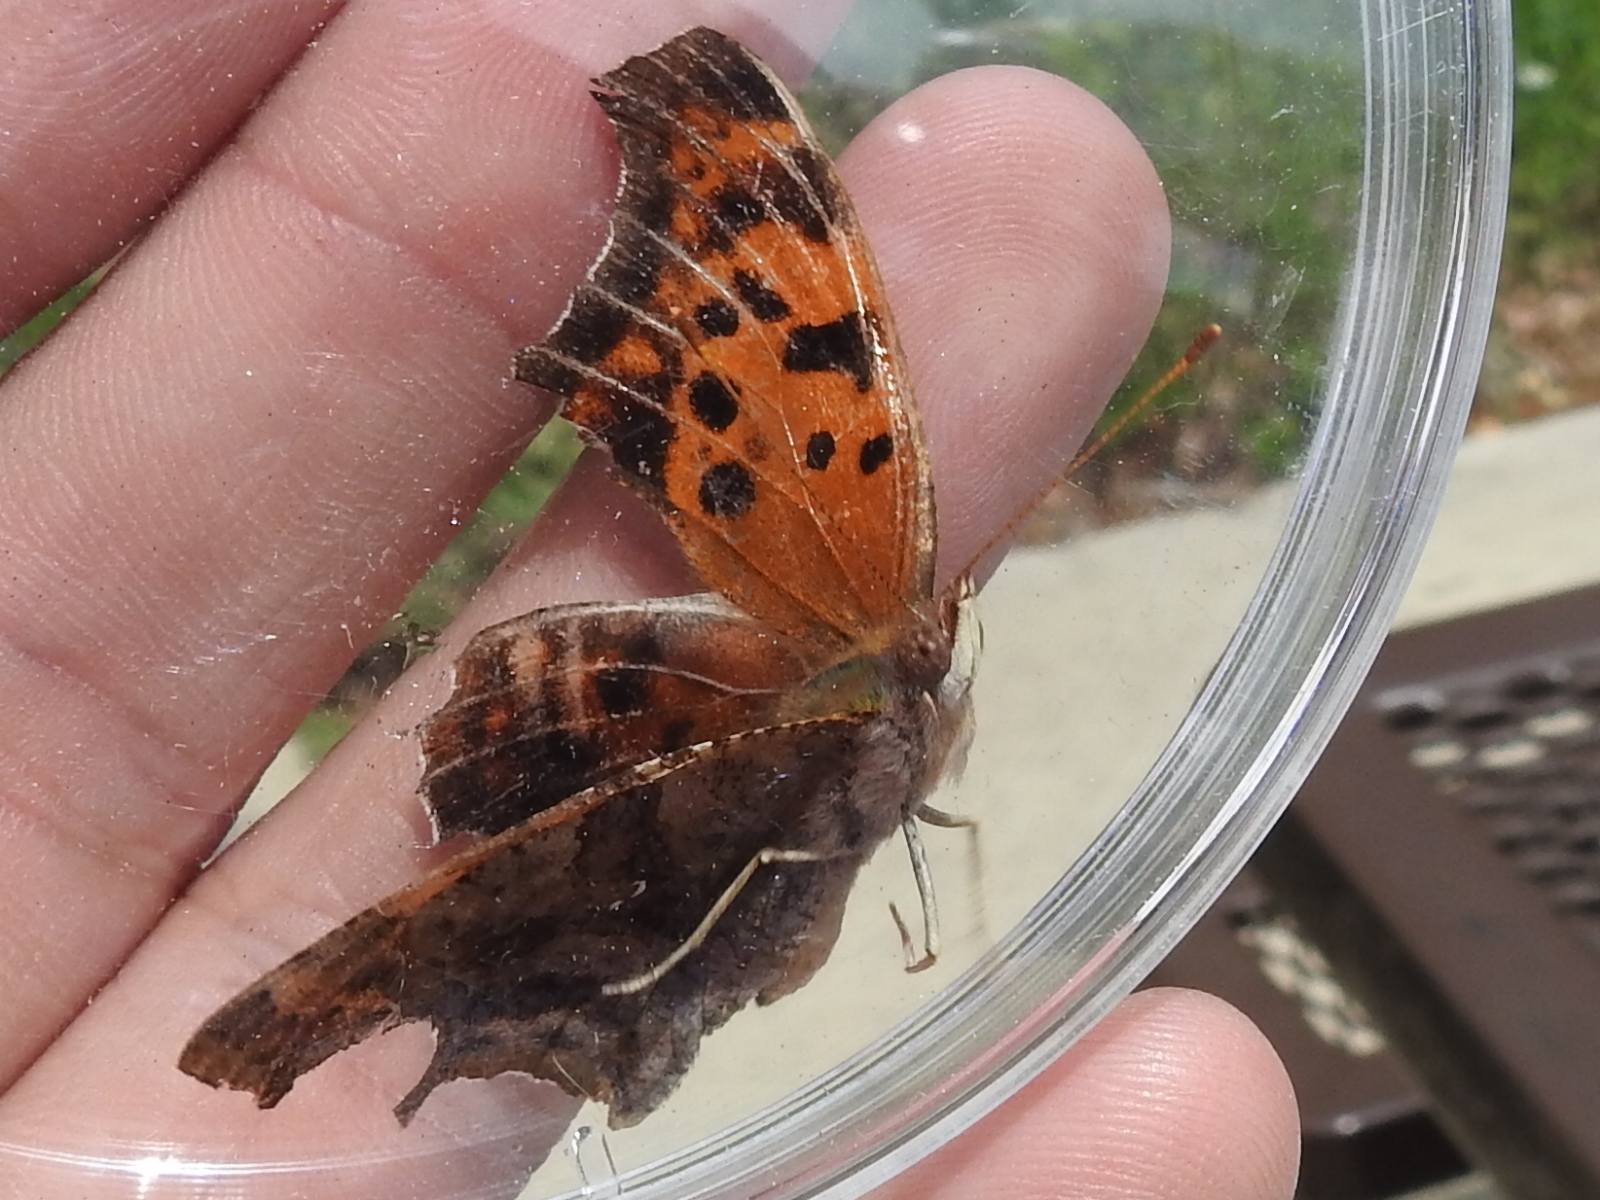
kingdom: Animalia
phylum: Arthropoda
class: Insecta
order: Lepidoptera
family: Nymphalidae
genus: Polygonia
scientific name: Polygonia interrogationis
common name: Question mark
